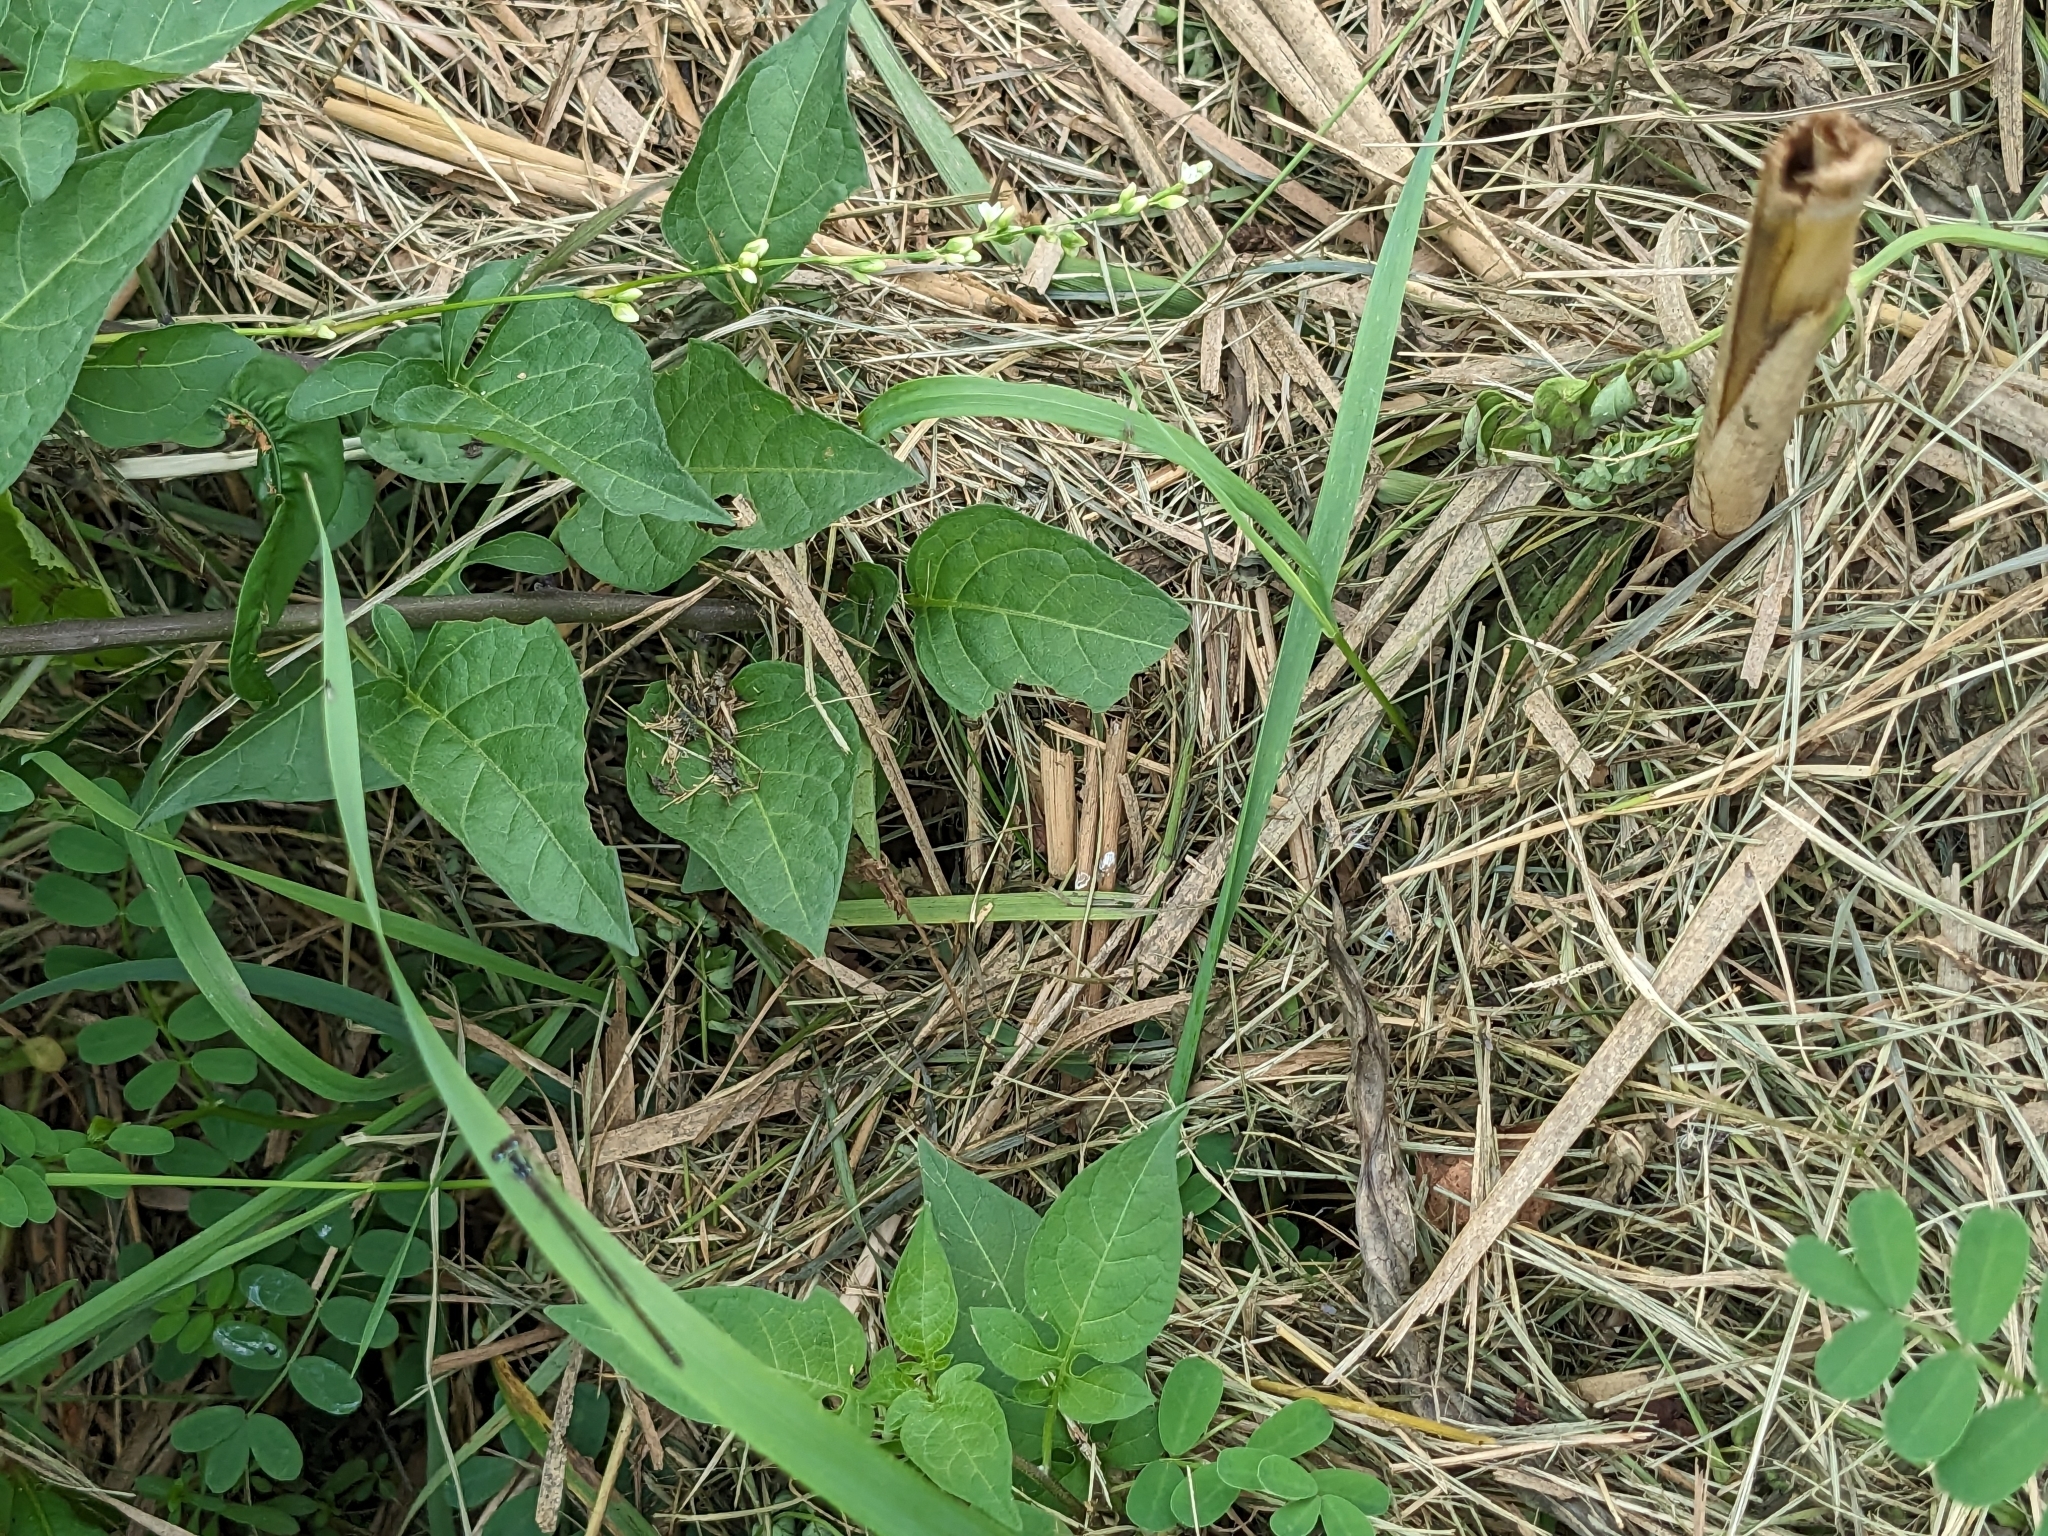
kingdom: Plantae
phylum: Tracheophyta
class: Magnoliopsida
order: Solanales
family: Solanaceae
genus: Solanum
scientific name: Solanum dulcamara
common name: Climbing nightshade
